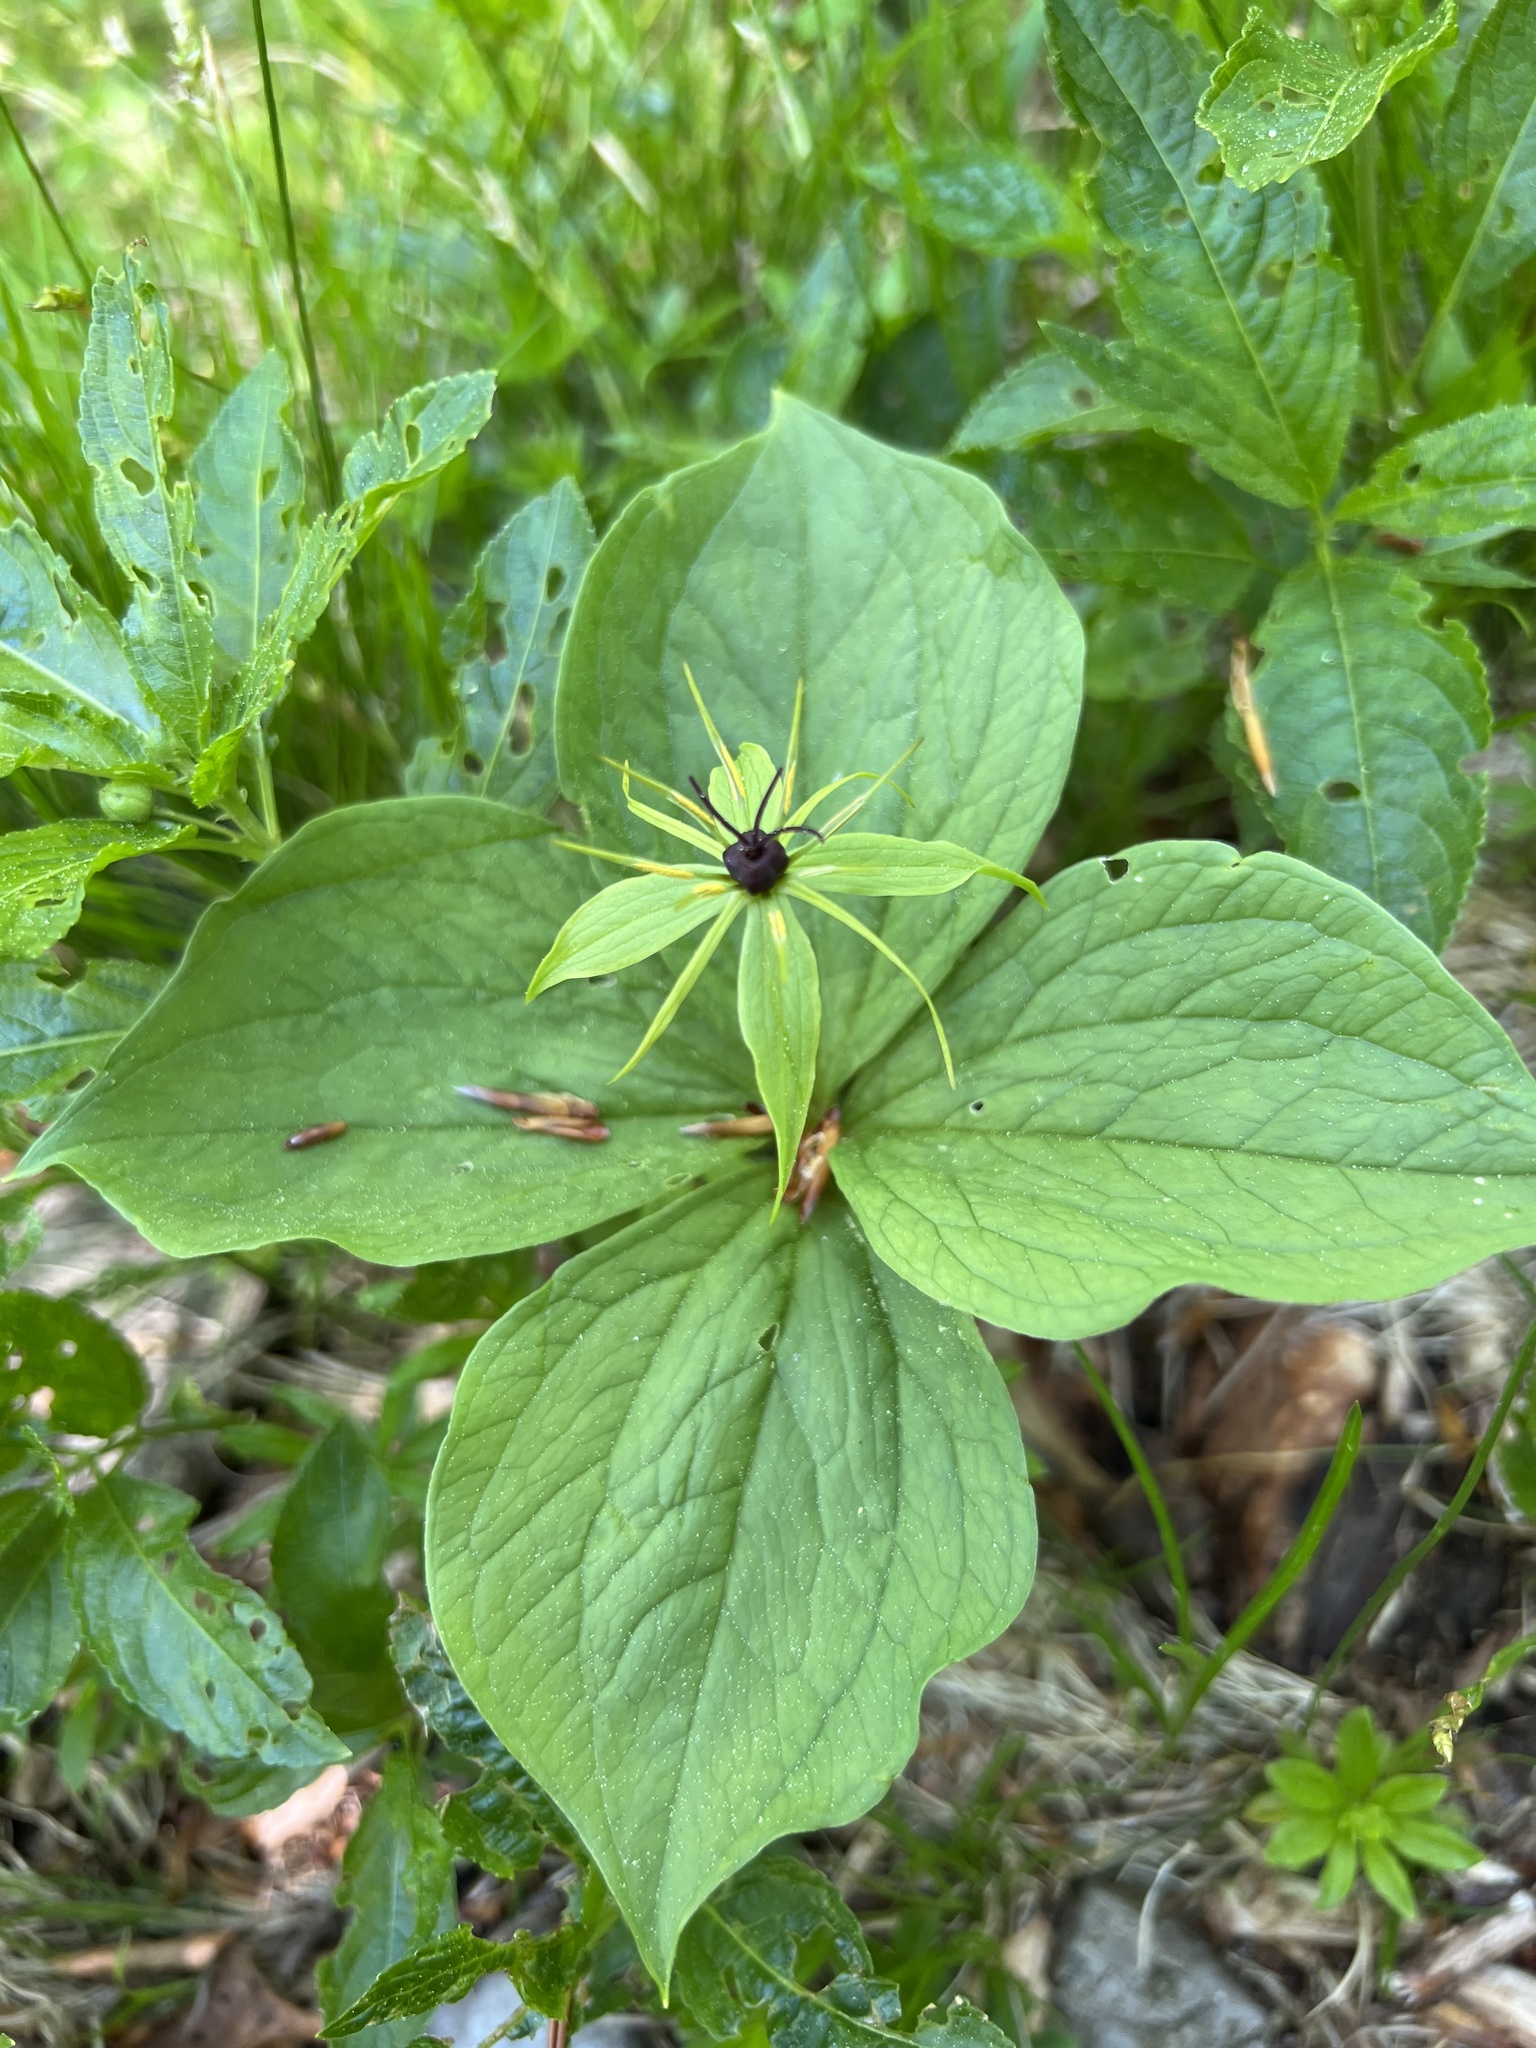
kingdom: Plantae
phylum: Tracheophyta
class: Liliopsida
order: Liliales
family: Melanthiaceae
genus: Paris
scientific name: Paris quadrifolia
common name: Herb-paris
